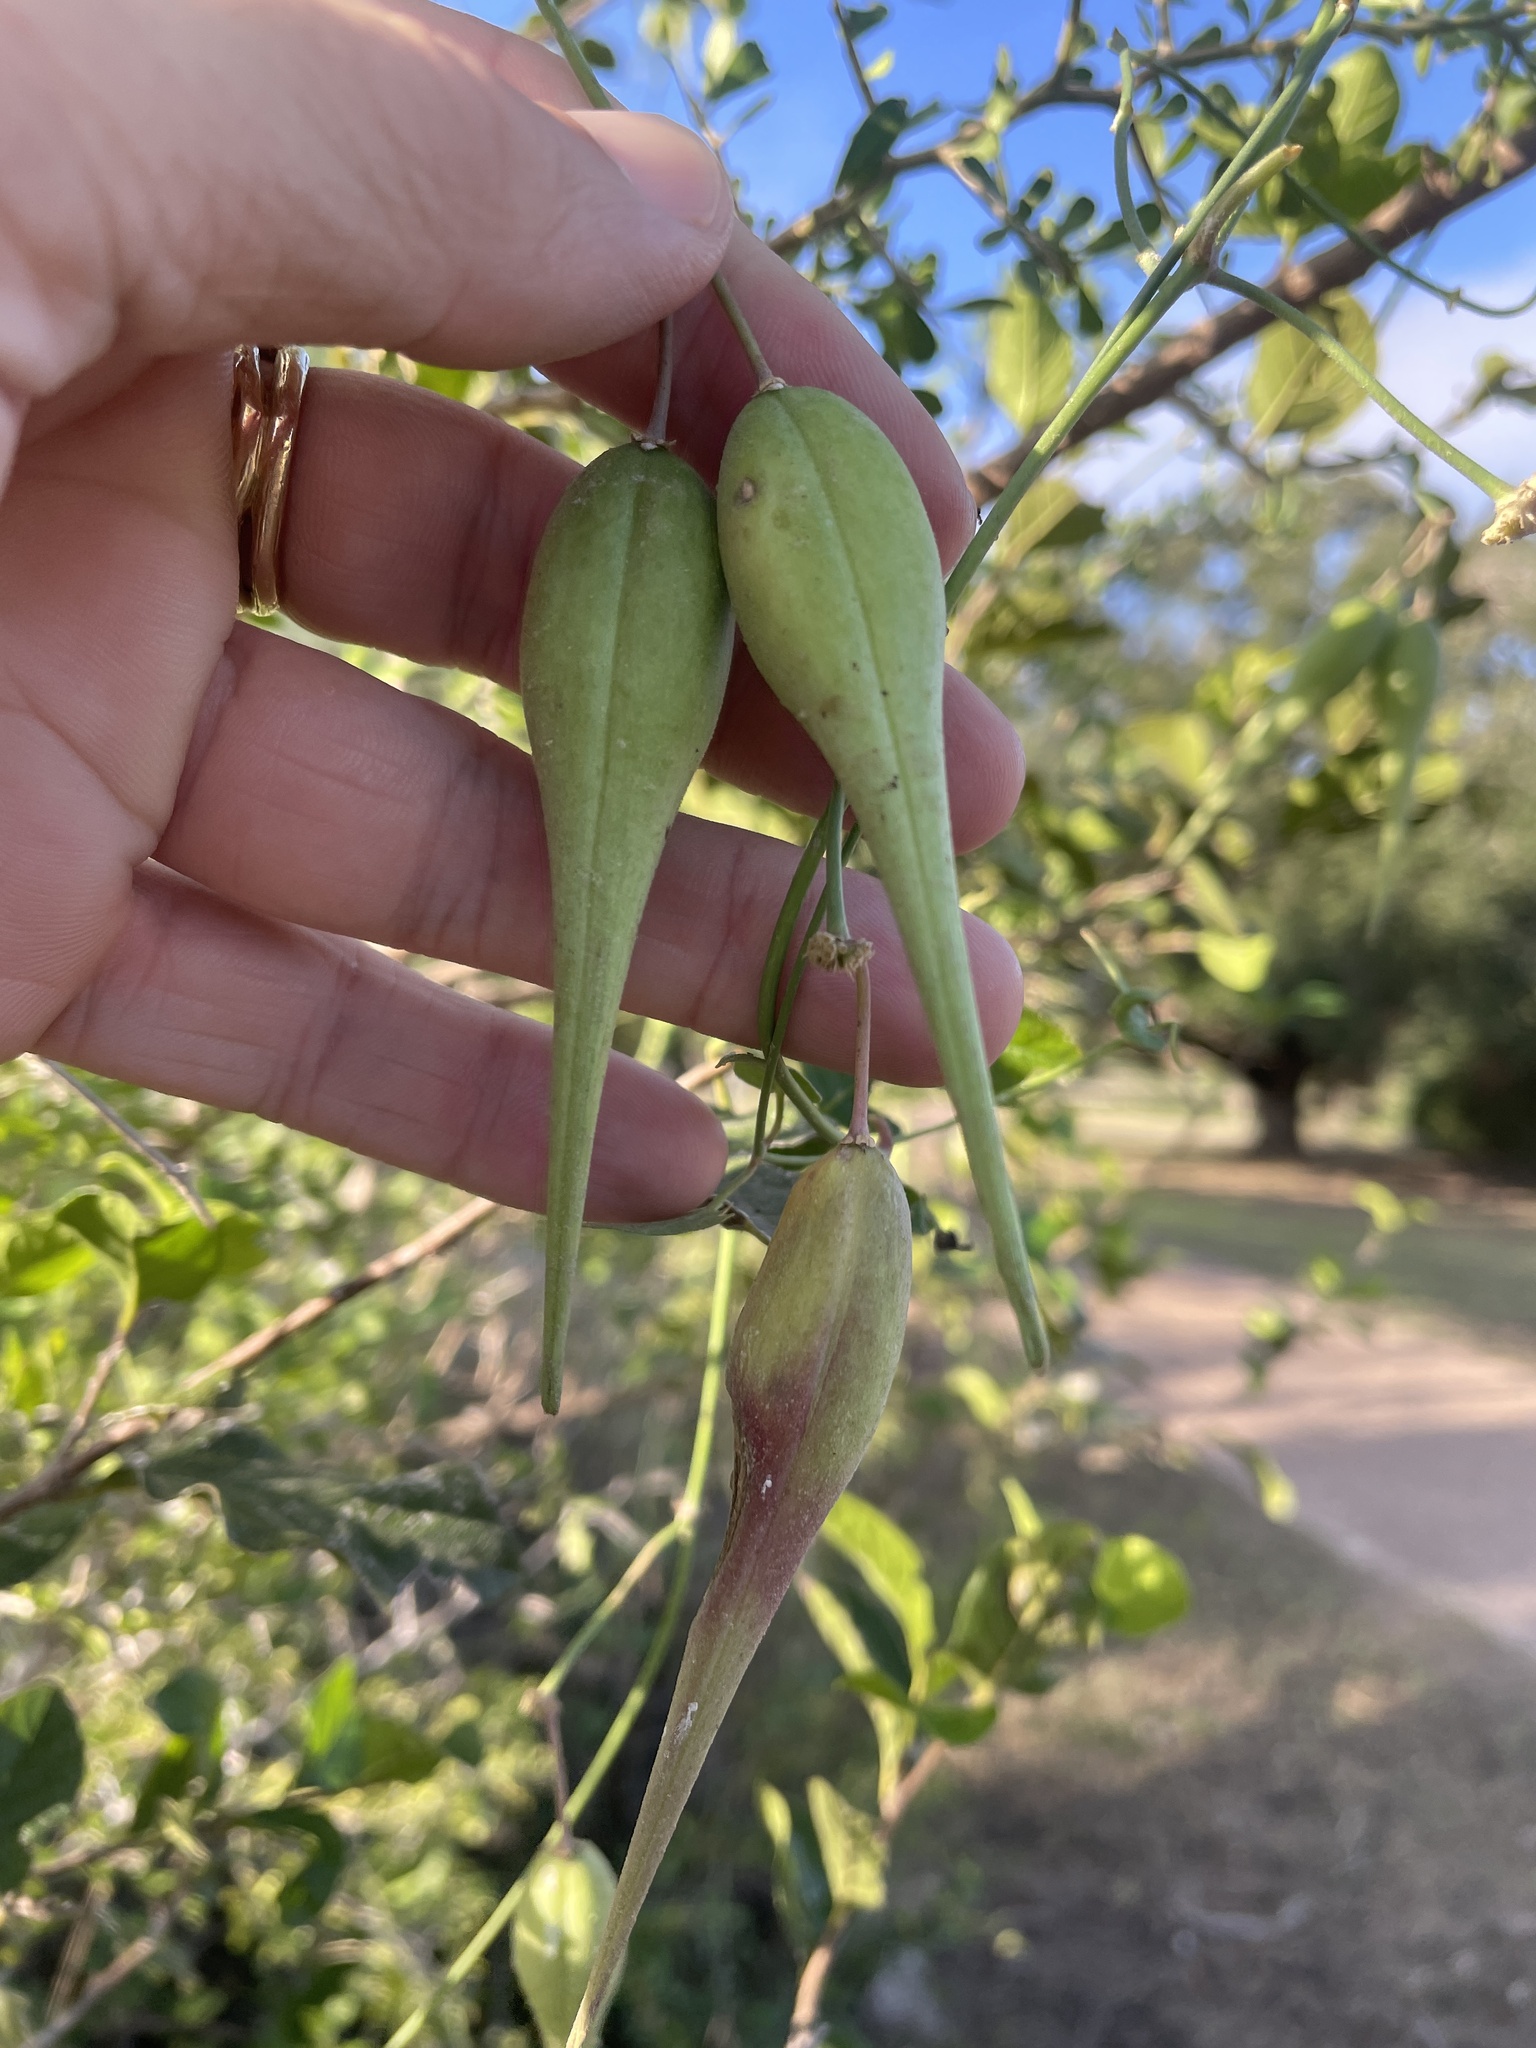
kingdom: Plantae
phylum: Tracheophyta
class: Magnoliopsida
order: Gentianales
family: Apocynaceae
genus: Funastrum
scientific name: Funastrum cynanchoides
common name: Climbing-milkweed
